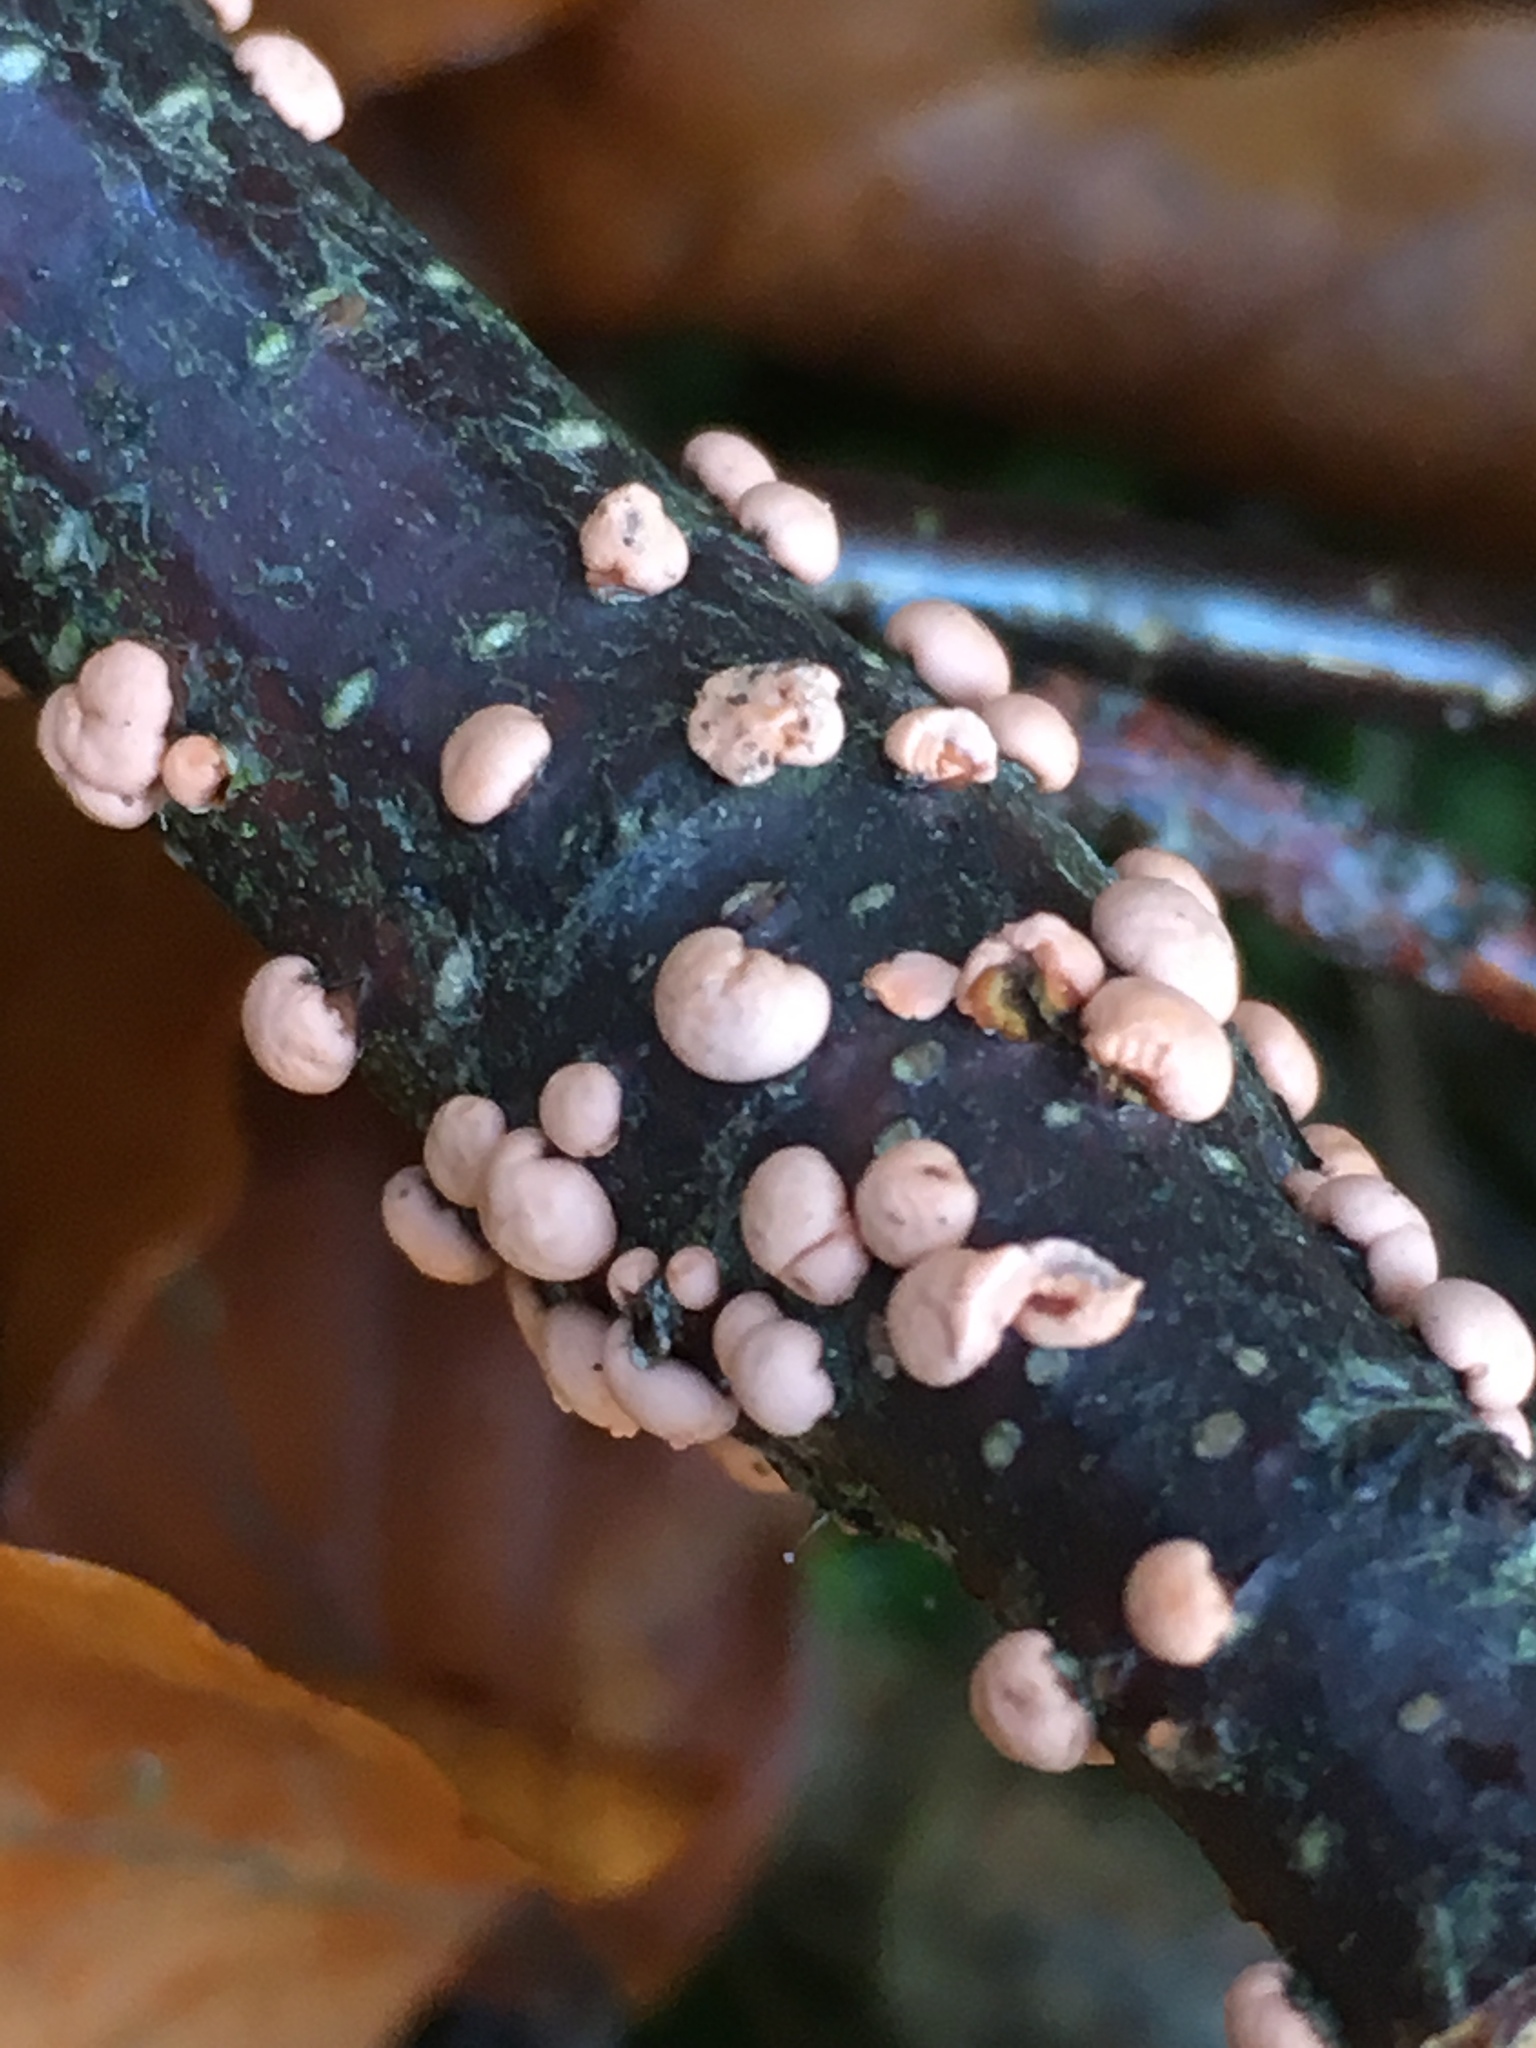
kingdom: Fungi
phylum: Ascomycota
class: Sordariomycetes
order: Hypocreales
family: Nectriaceae
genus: Nectria
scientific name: Nectria cinnabarina
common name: Coral spot
